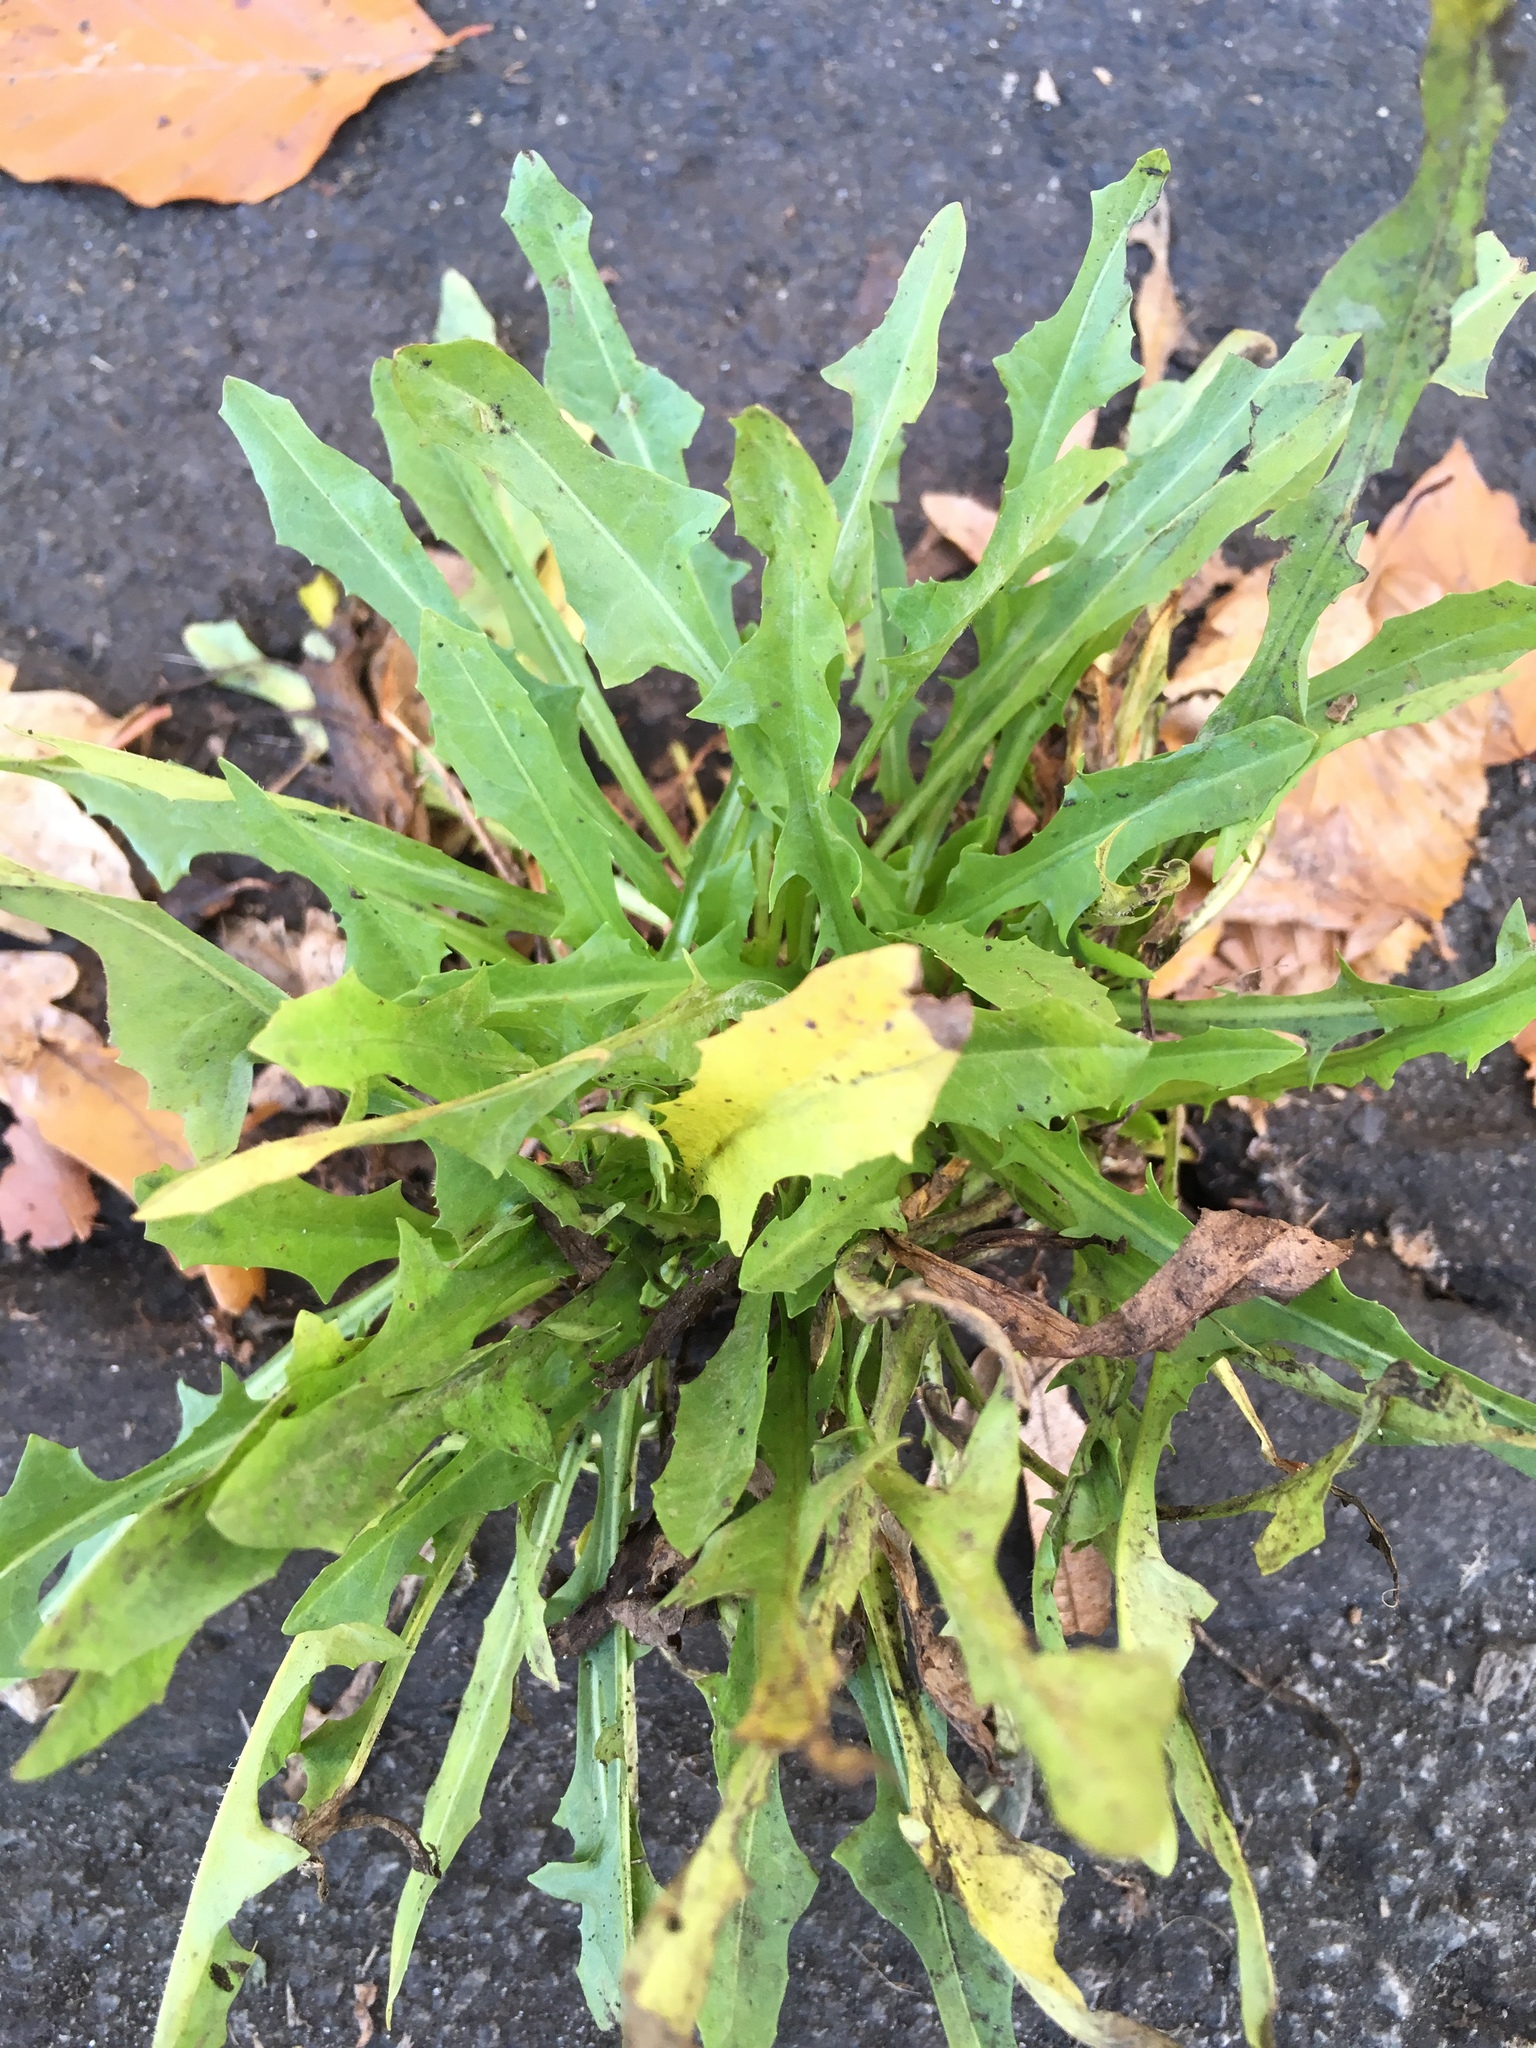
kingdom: Plantae
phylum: Tracheophyta
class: Magnoliopsida
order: Asterales
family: Asteraceae
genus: Scorzoneroides
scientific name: Scorzoneroides autumnalis
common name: Autumn hawkbit
